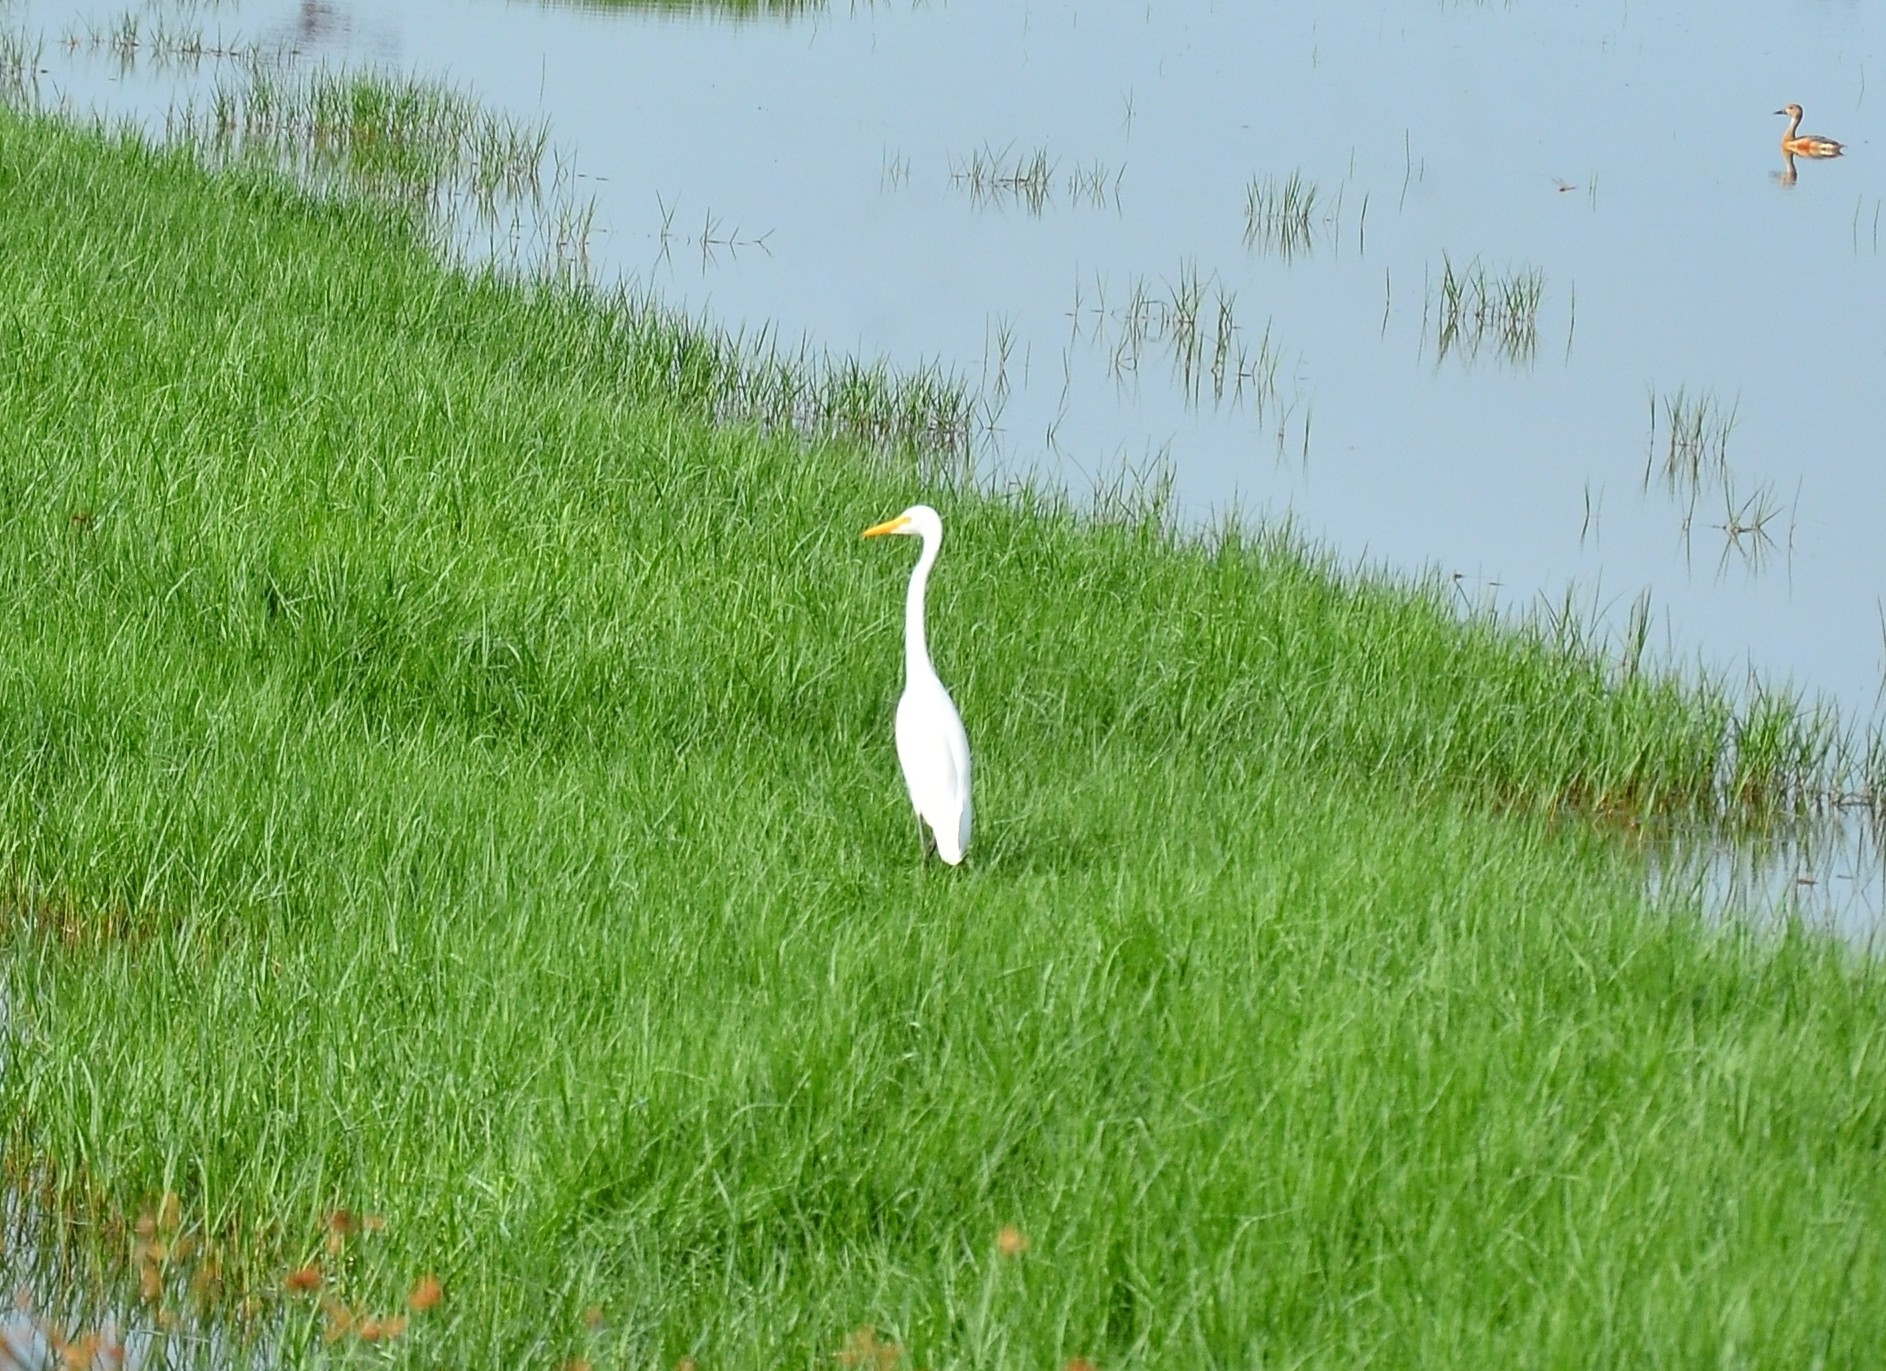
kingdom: Animalia
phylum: Chordata
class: Aves
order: Pelecaniformes
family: Ardeidae
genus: Egretta
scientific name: Egretta intermedia
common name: Intermediate egret
